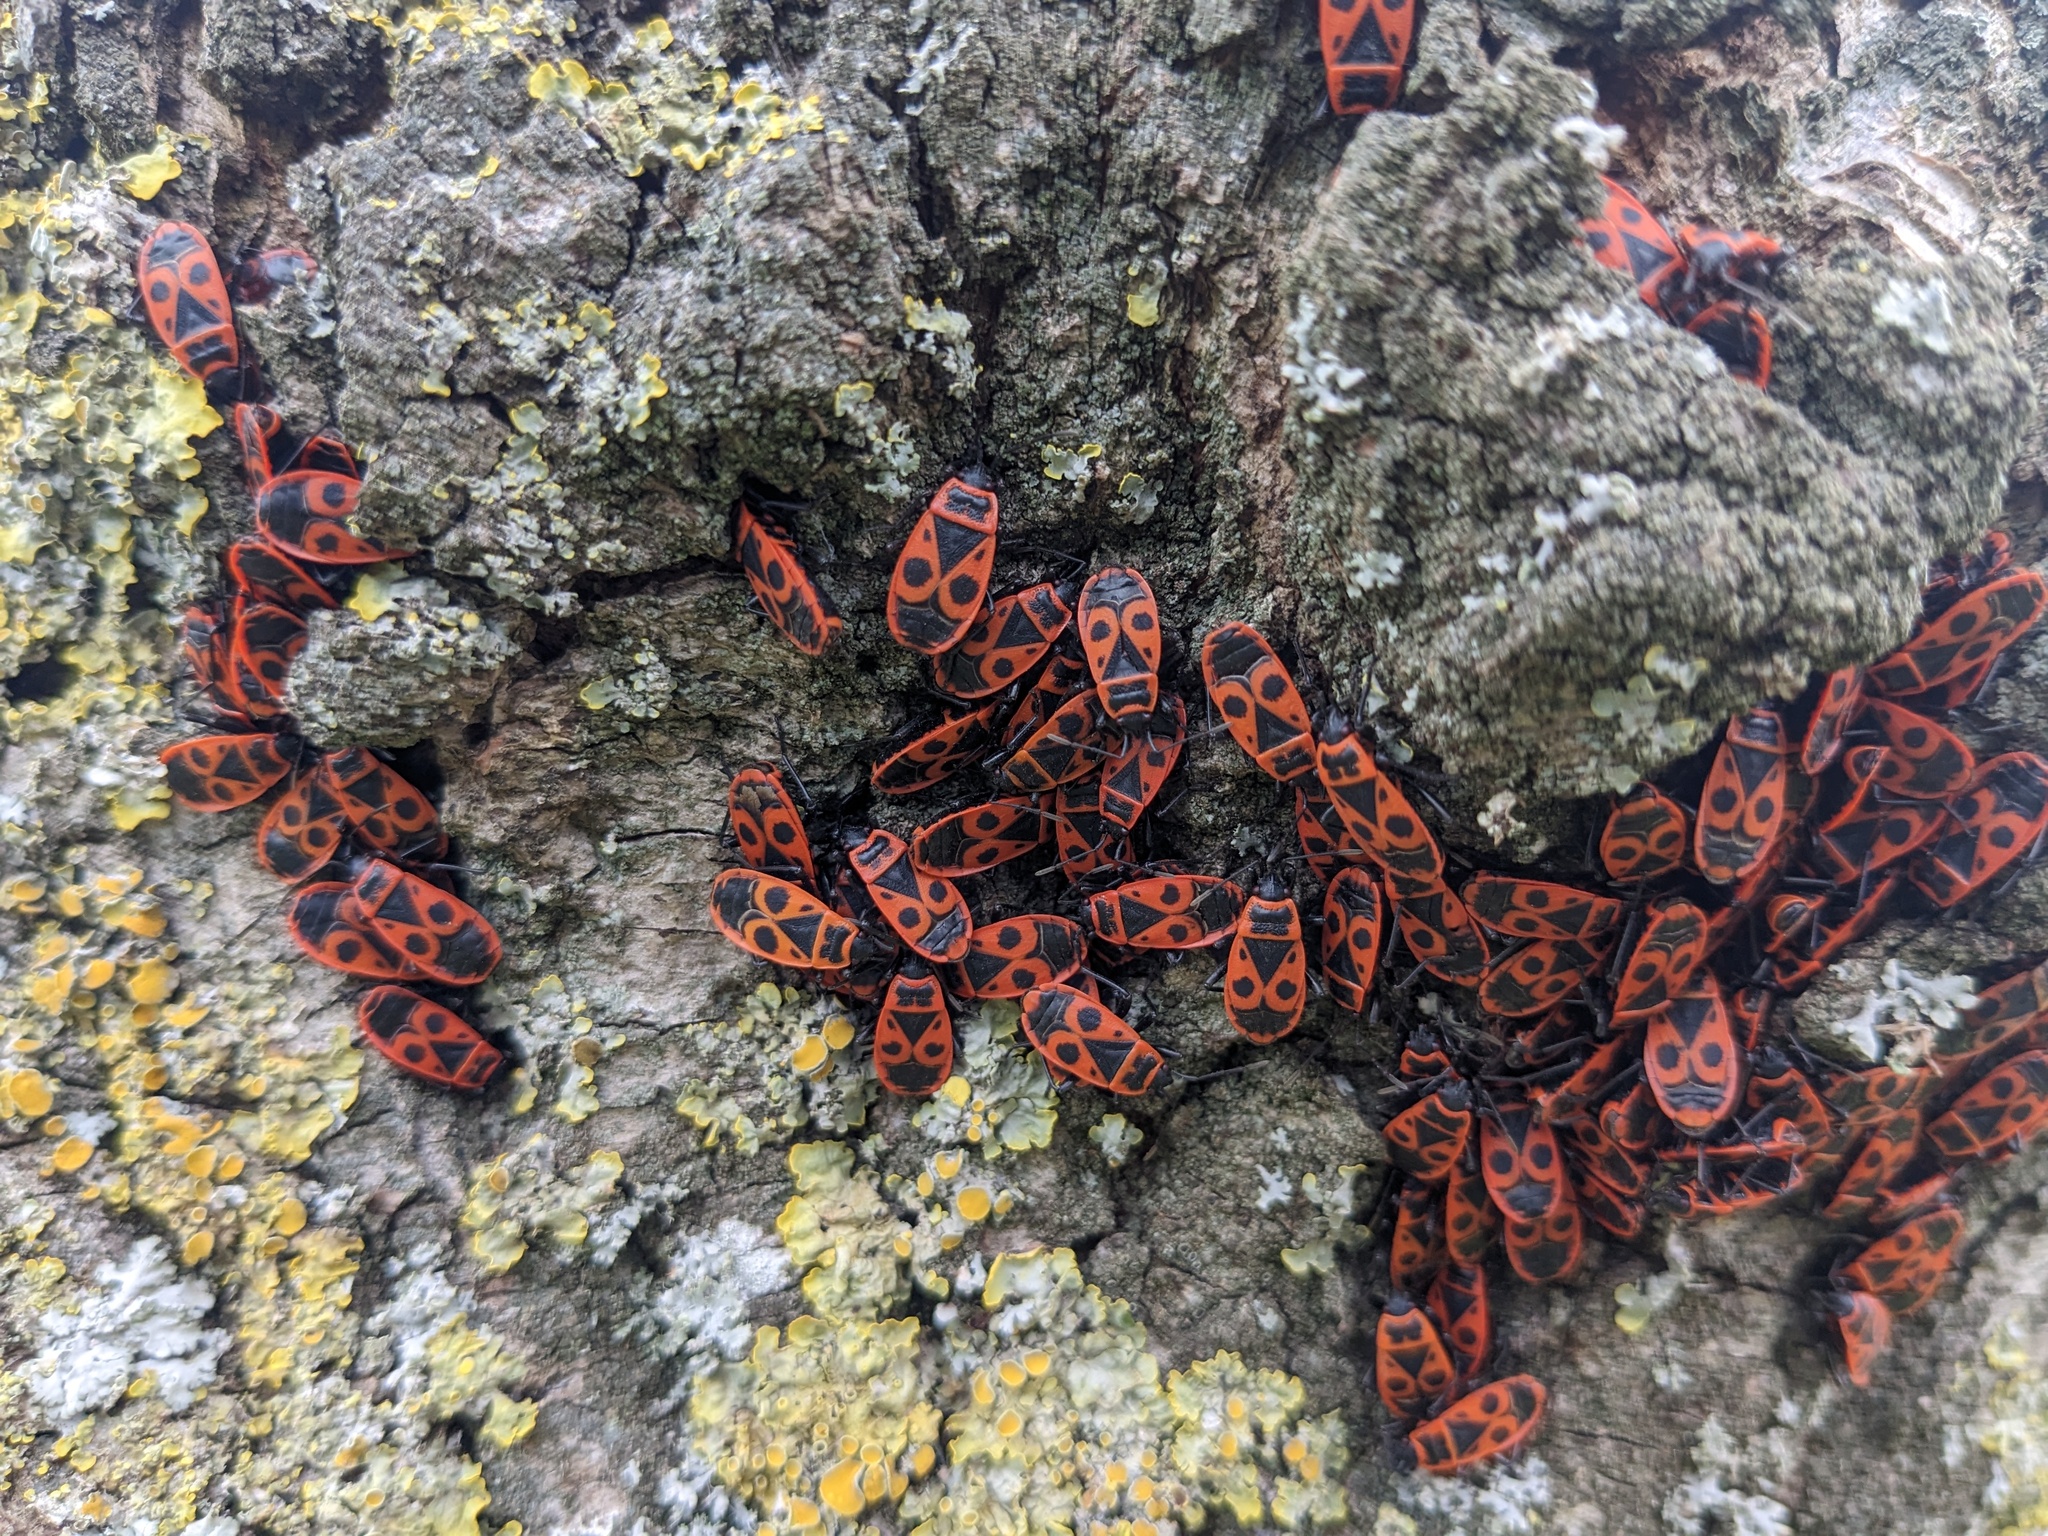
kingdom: Animalia
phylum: Arthropoda
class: Insecta
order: Hemiptera
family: Pyrrhocoridae
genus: Pyrrhocoris
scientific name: Pyrrhocoris apterus
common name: Firebug
